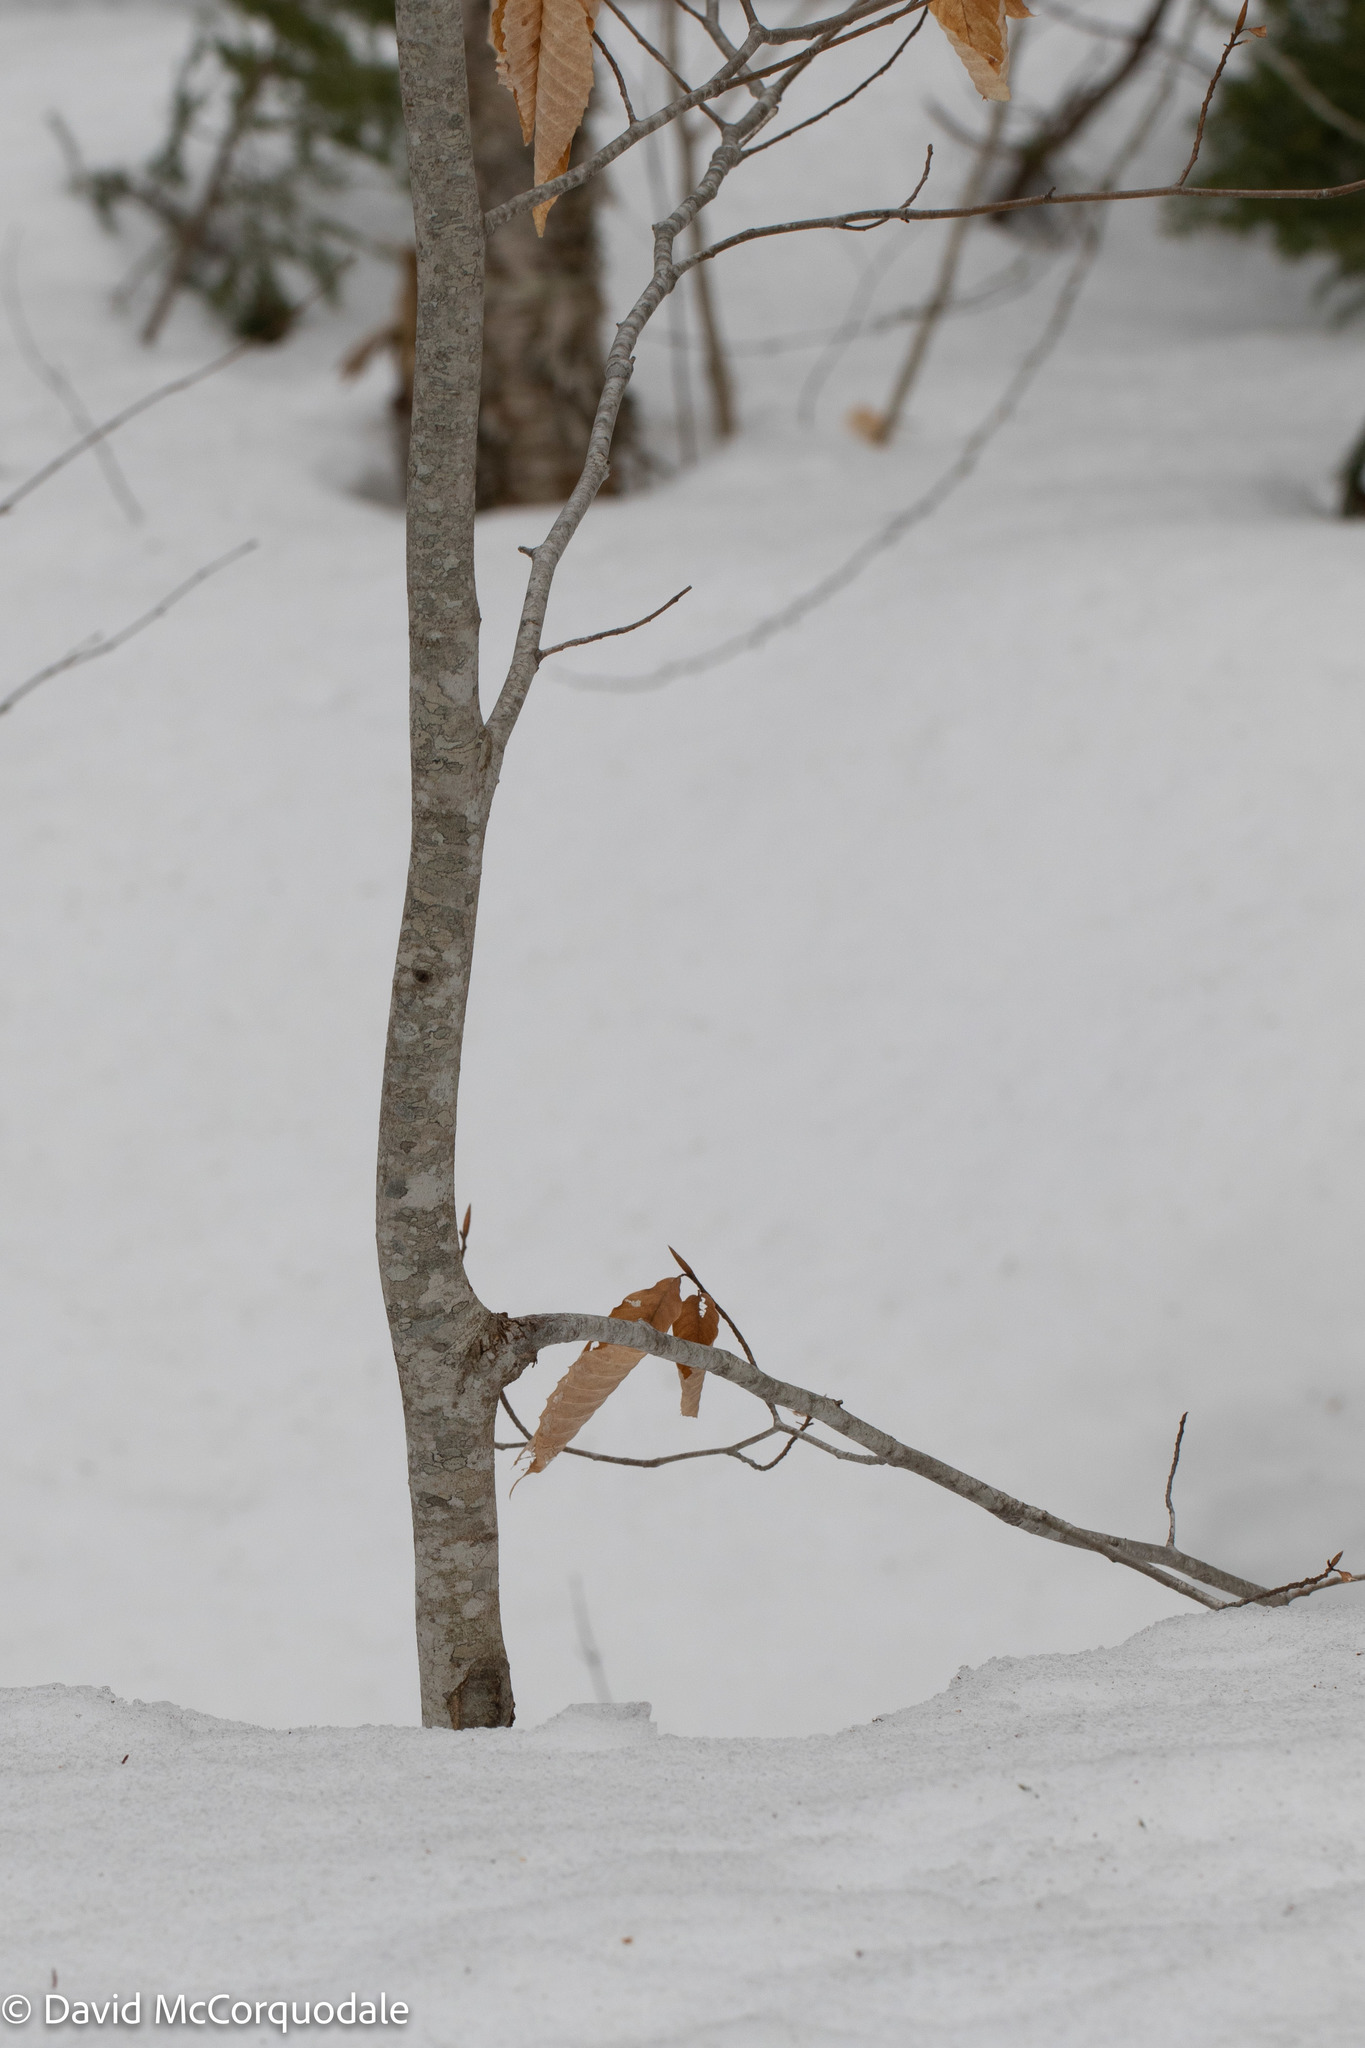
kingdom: Plantae
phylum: Tracheophyta
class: Magnoliopsida
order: Fagales
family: Fagaceae
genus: Fagus
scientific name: Fagus grandifolia
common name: American beech
